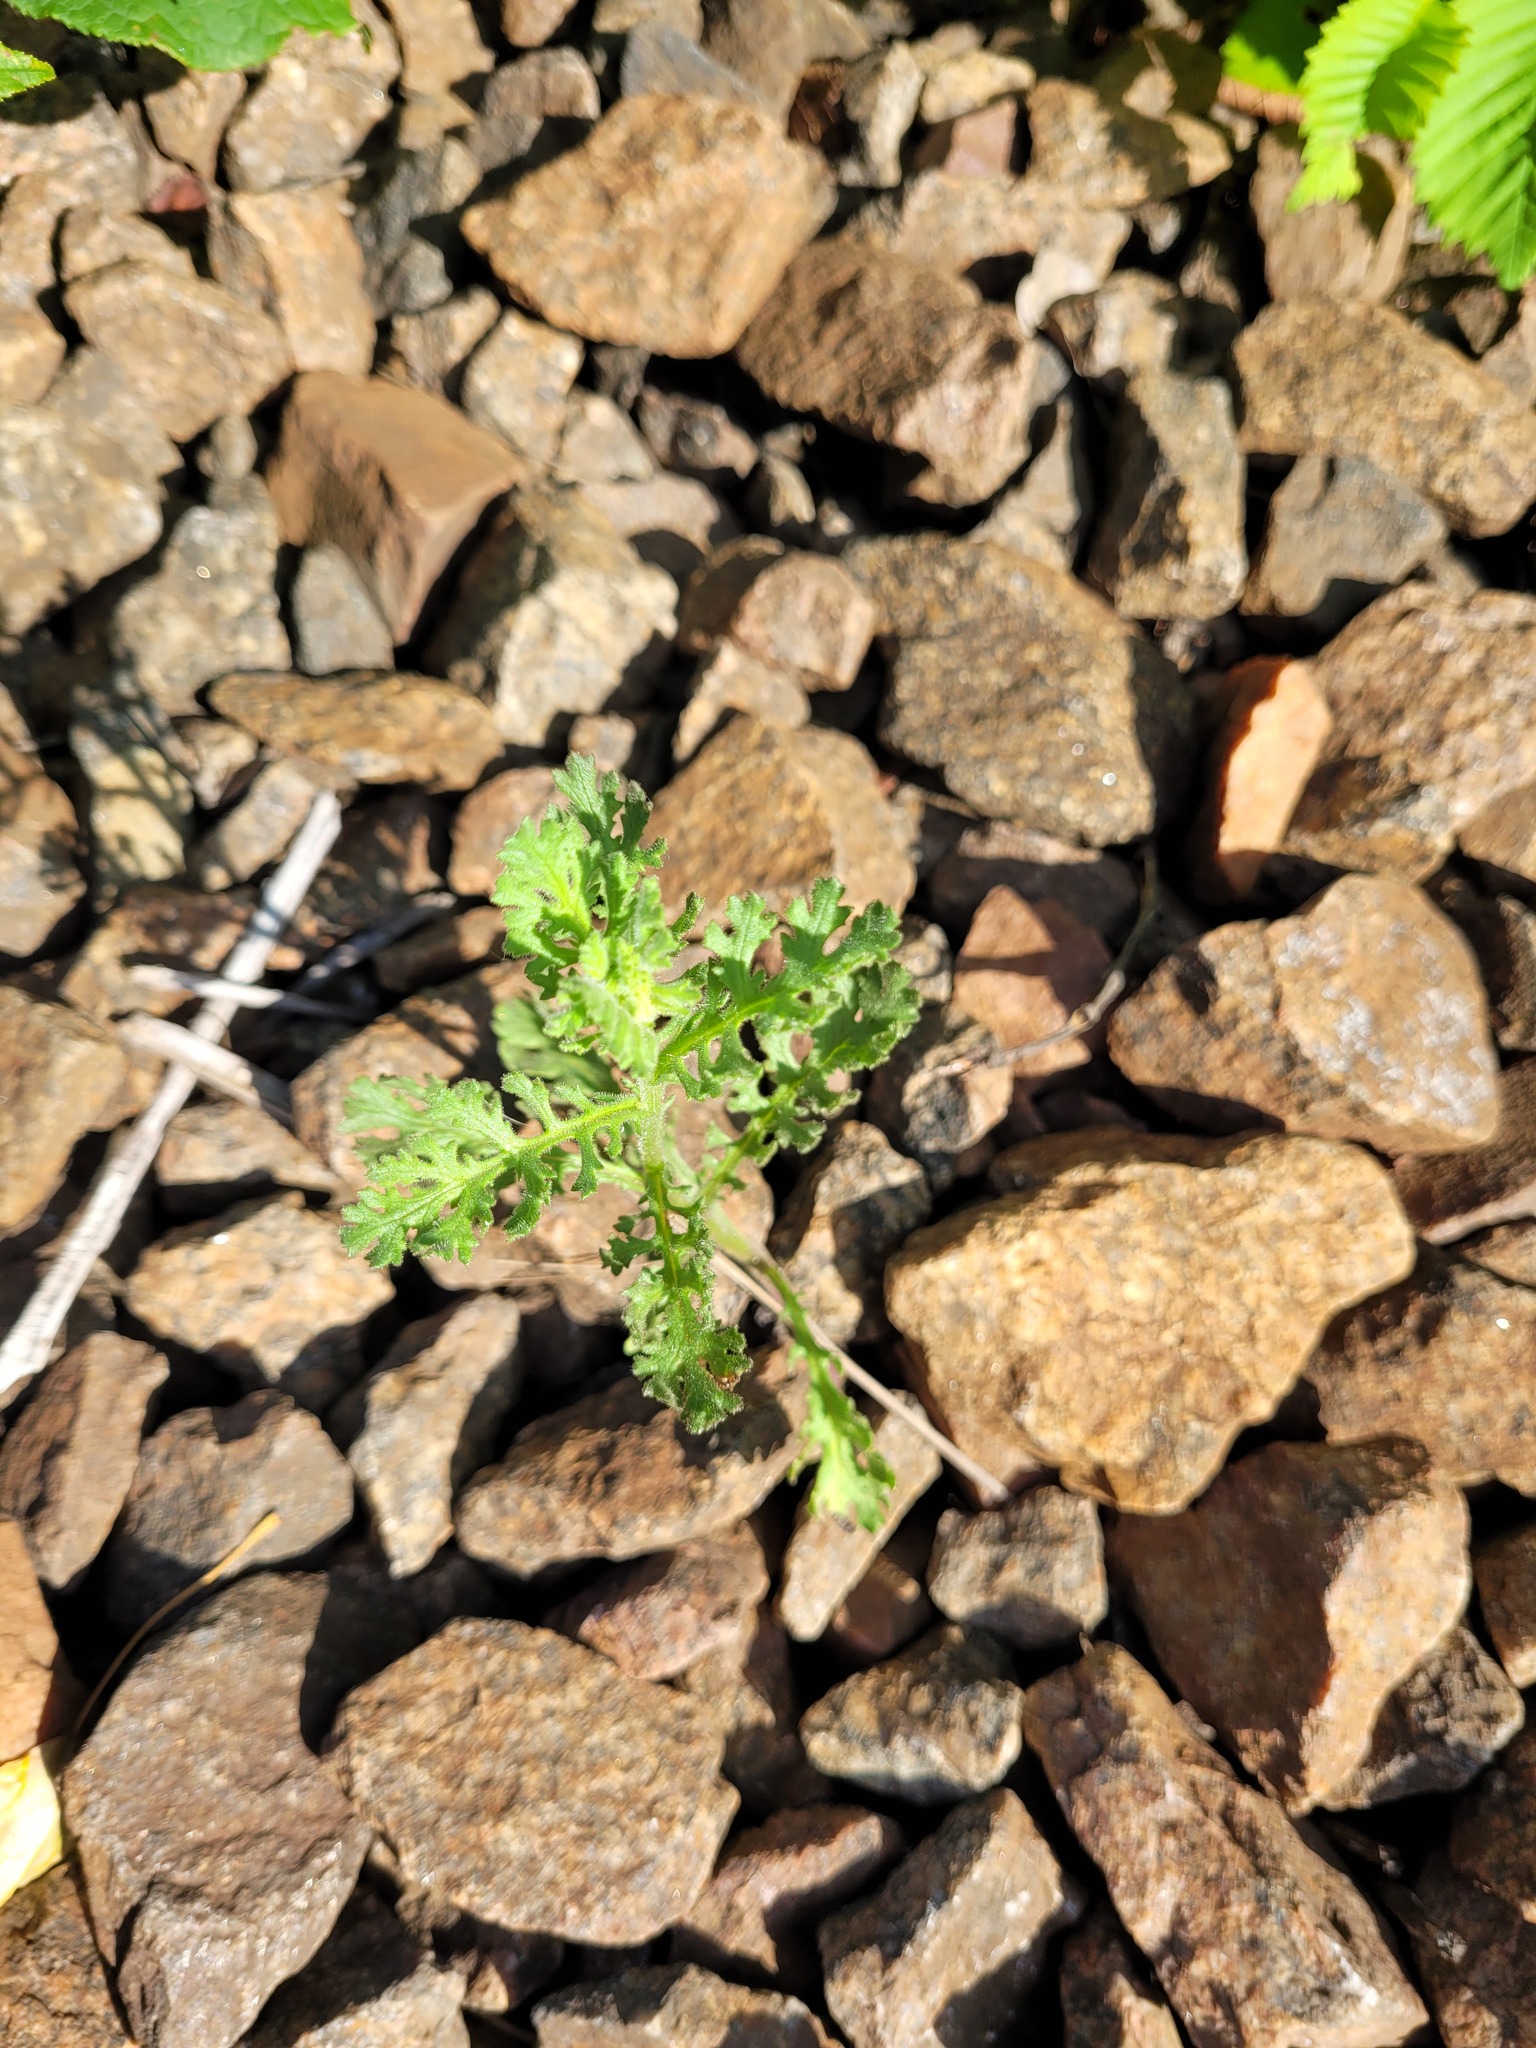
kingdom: Plantae
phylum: Tracheophyta
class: Magnoliopsida
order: Asterales
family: Asteraceae
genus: Senecio
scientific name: Senecio viscosus
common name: Sticky groundsel
